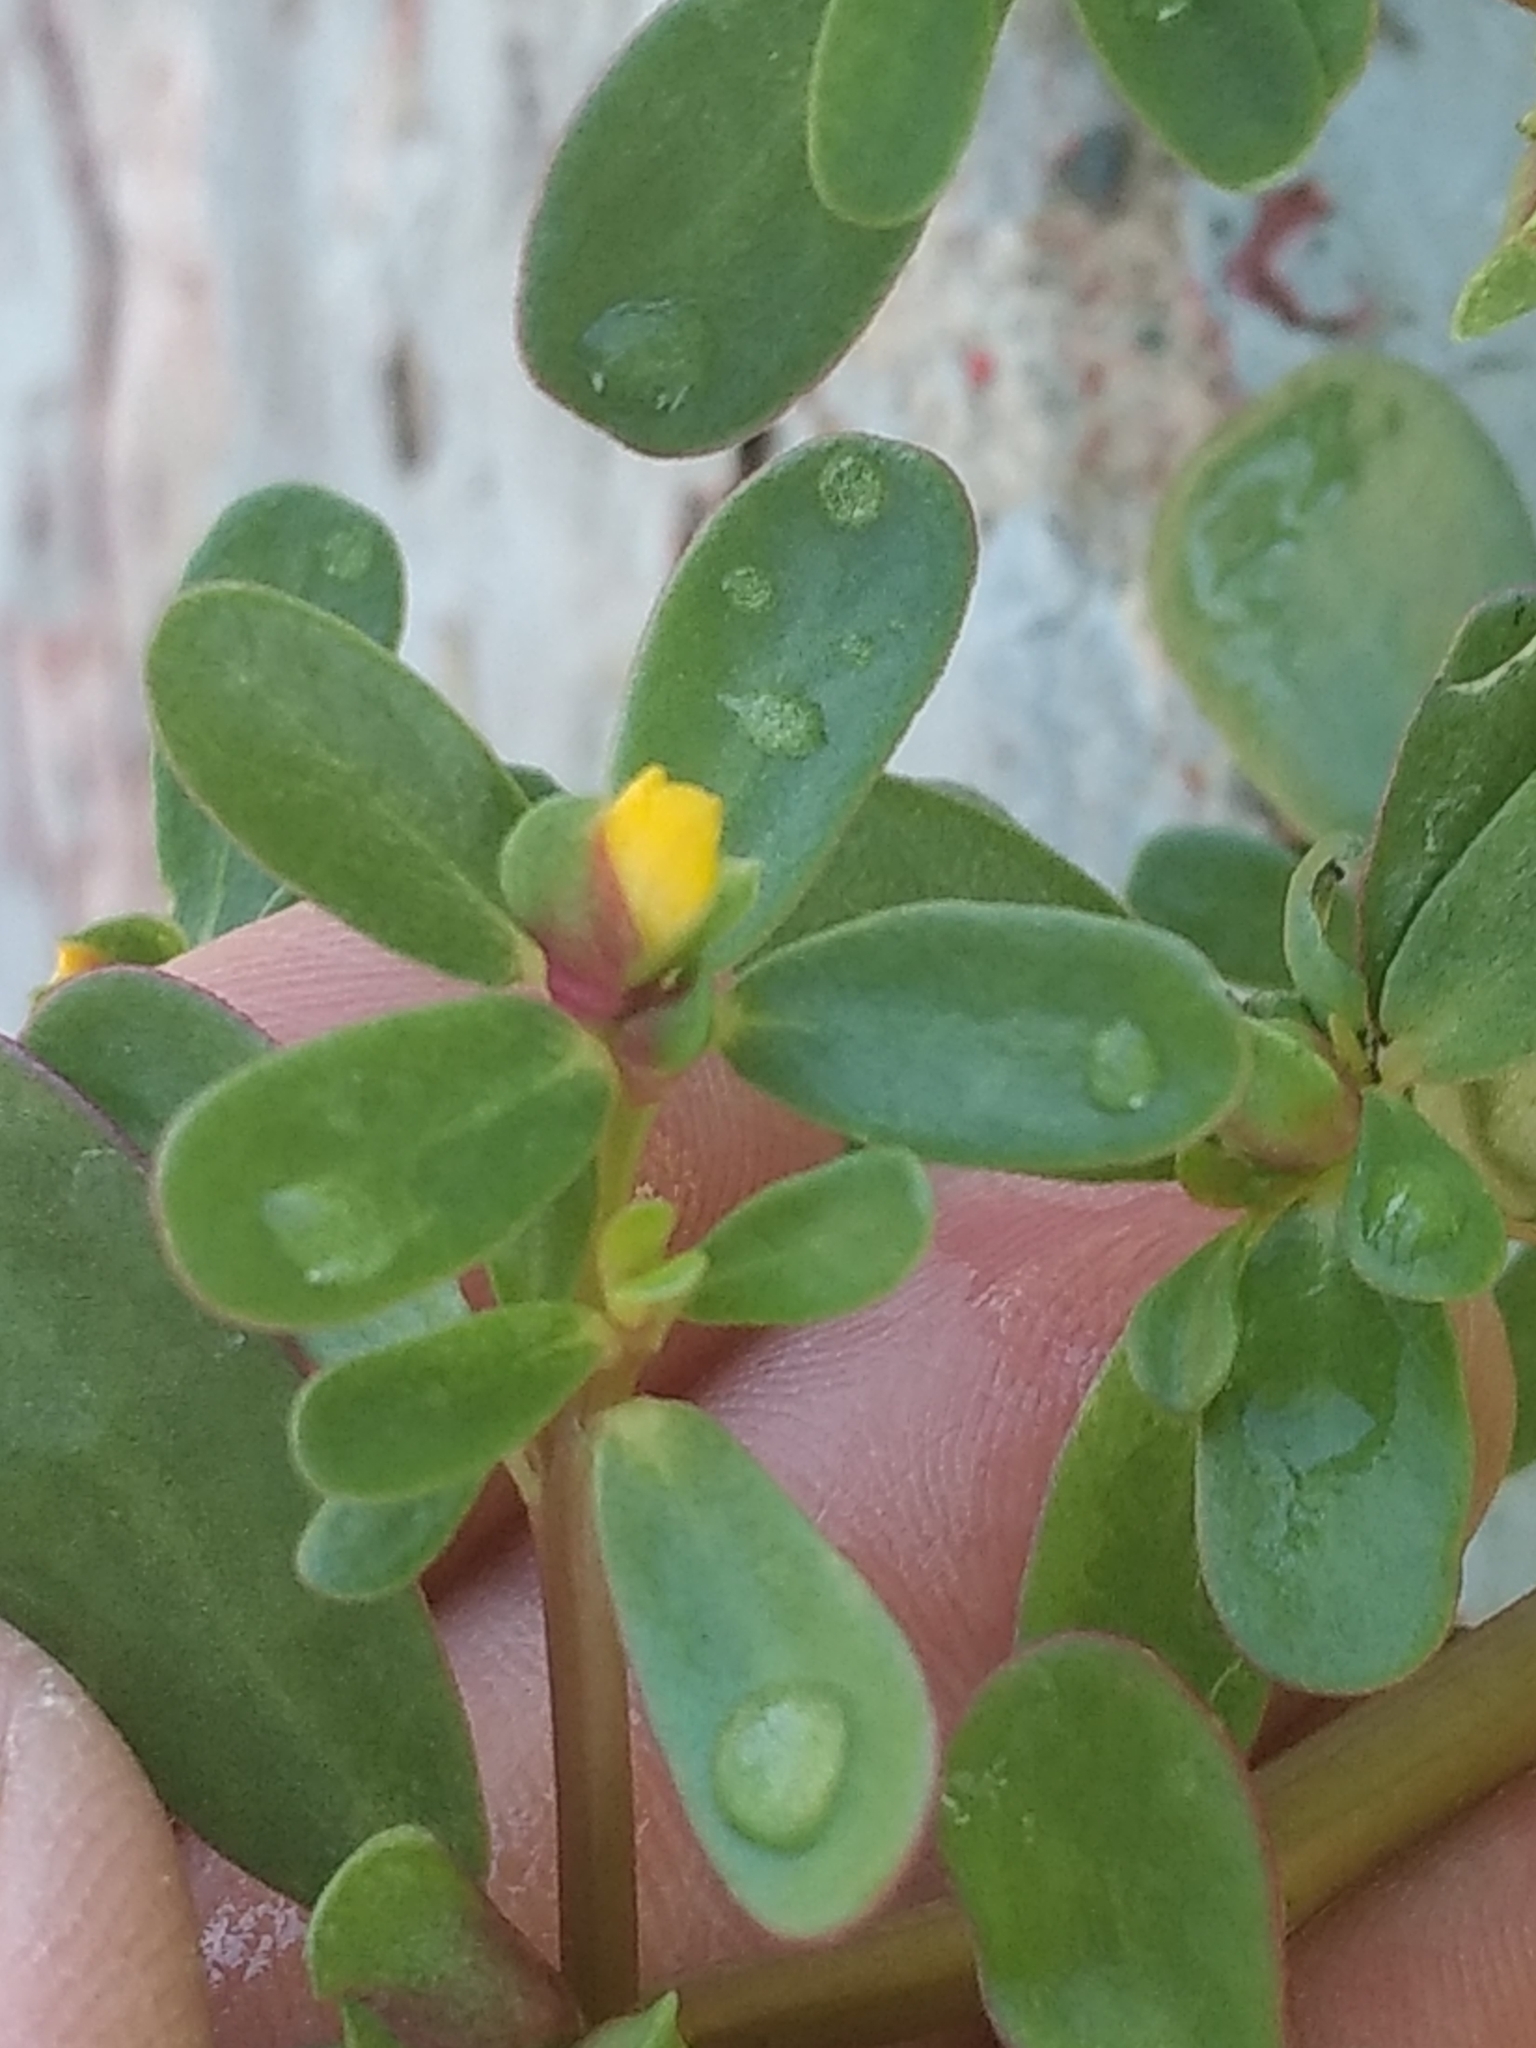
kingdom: Plantae
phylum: Tracheophyta
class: Magnoliopsida
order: Caryophyllales
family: Portulacaceae
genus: Portulaca
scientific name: Portulaca oleracea
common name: Common purslane
